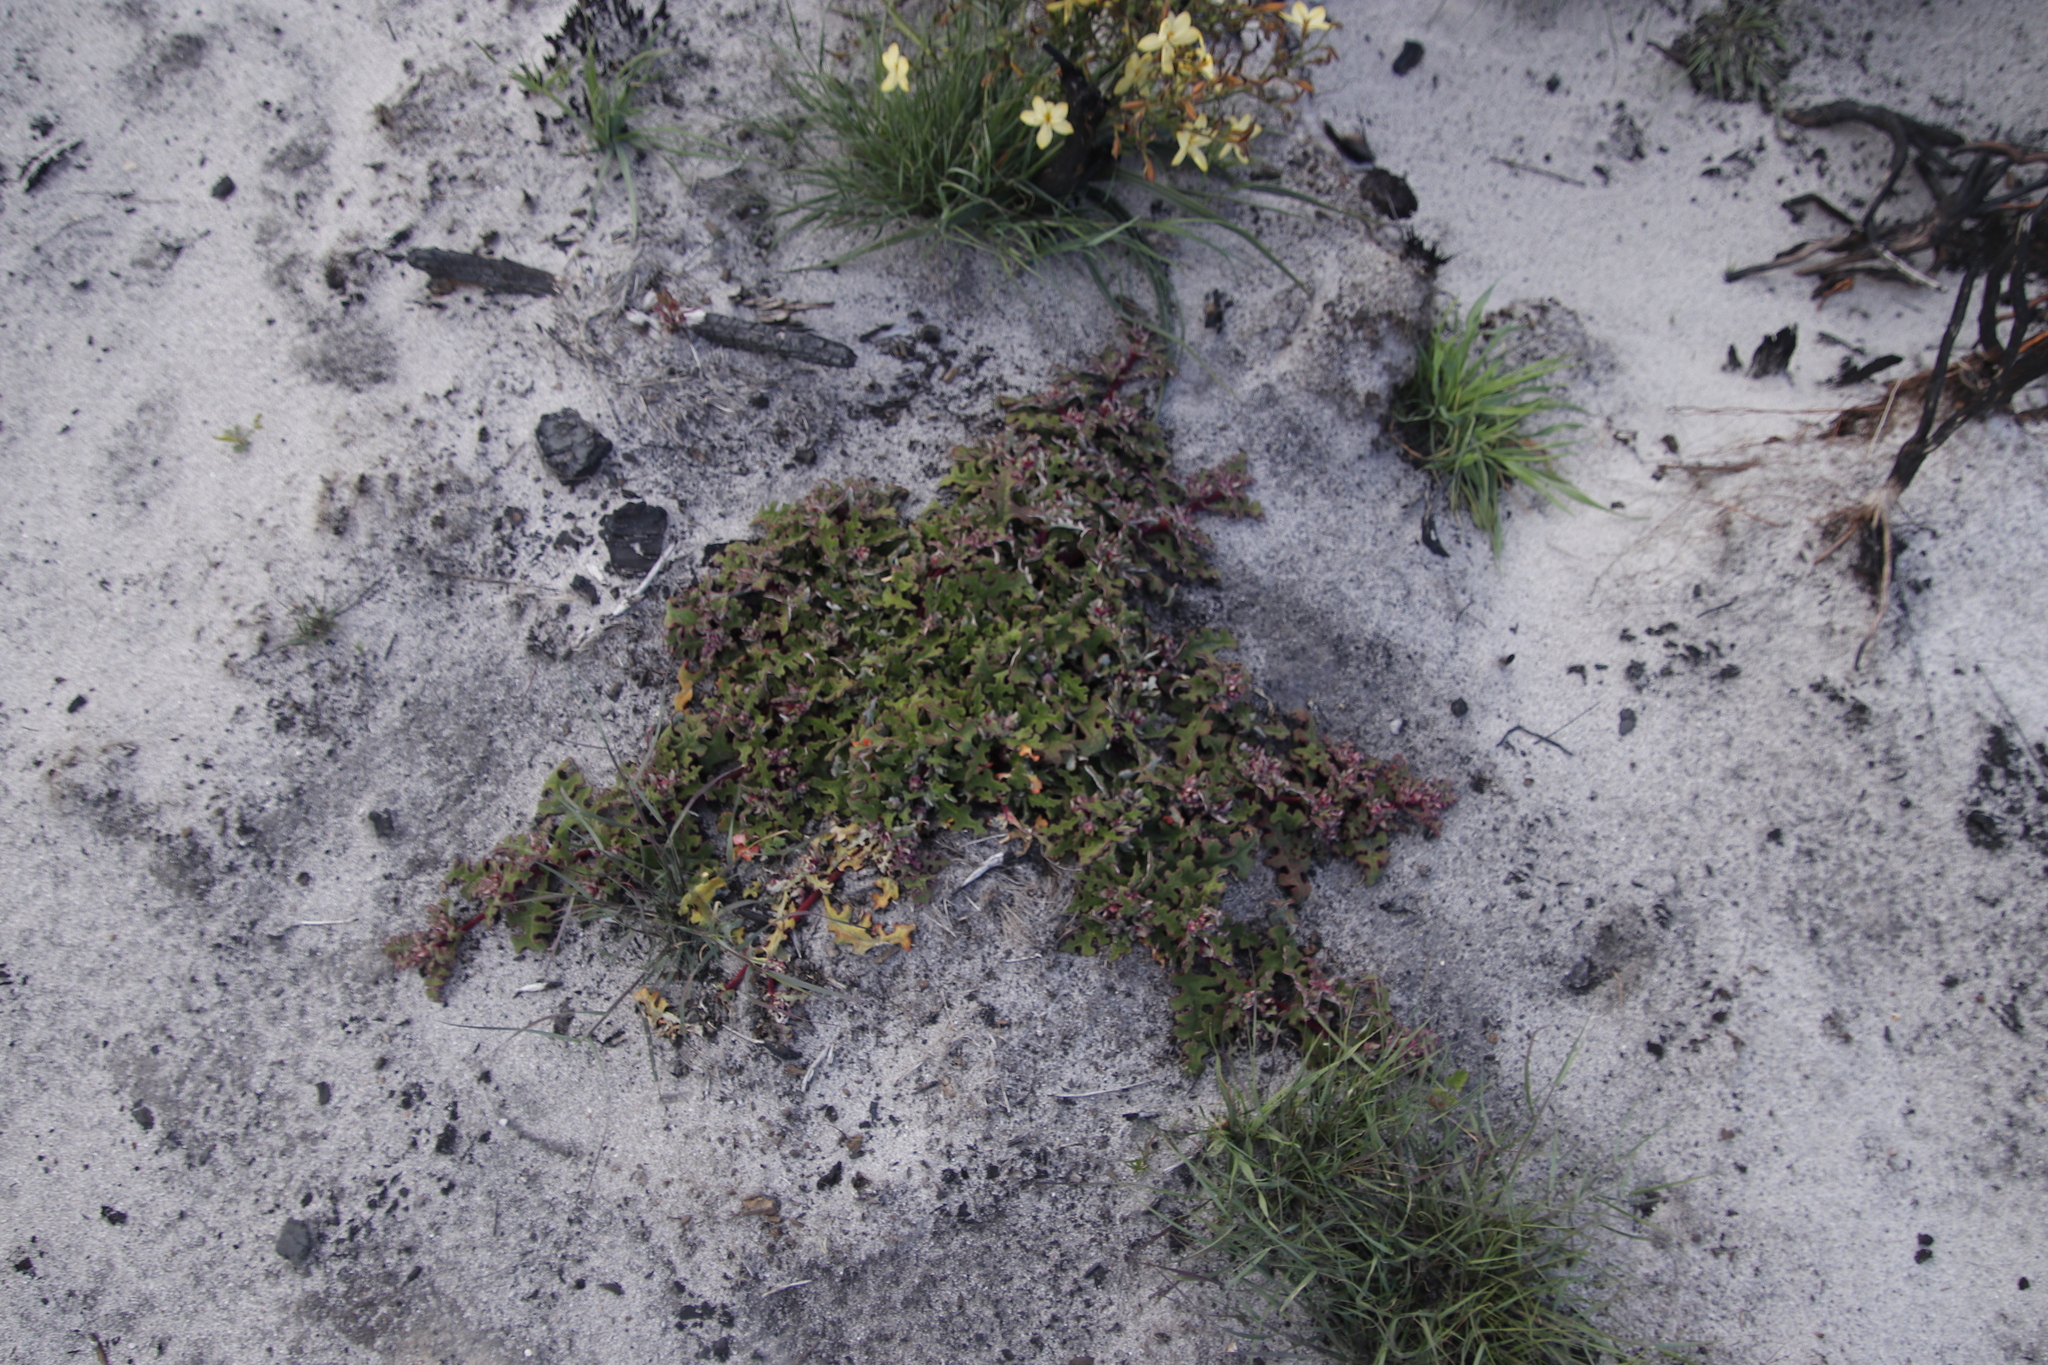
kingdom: Plantae
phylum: Tracheophyta
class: Magnoliopsida
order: Caryophyllales
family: Aizoaceae
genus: Cleretum
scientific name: Cleretum herrei
